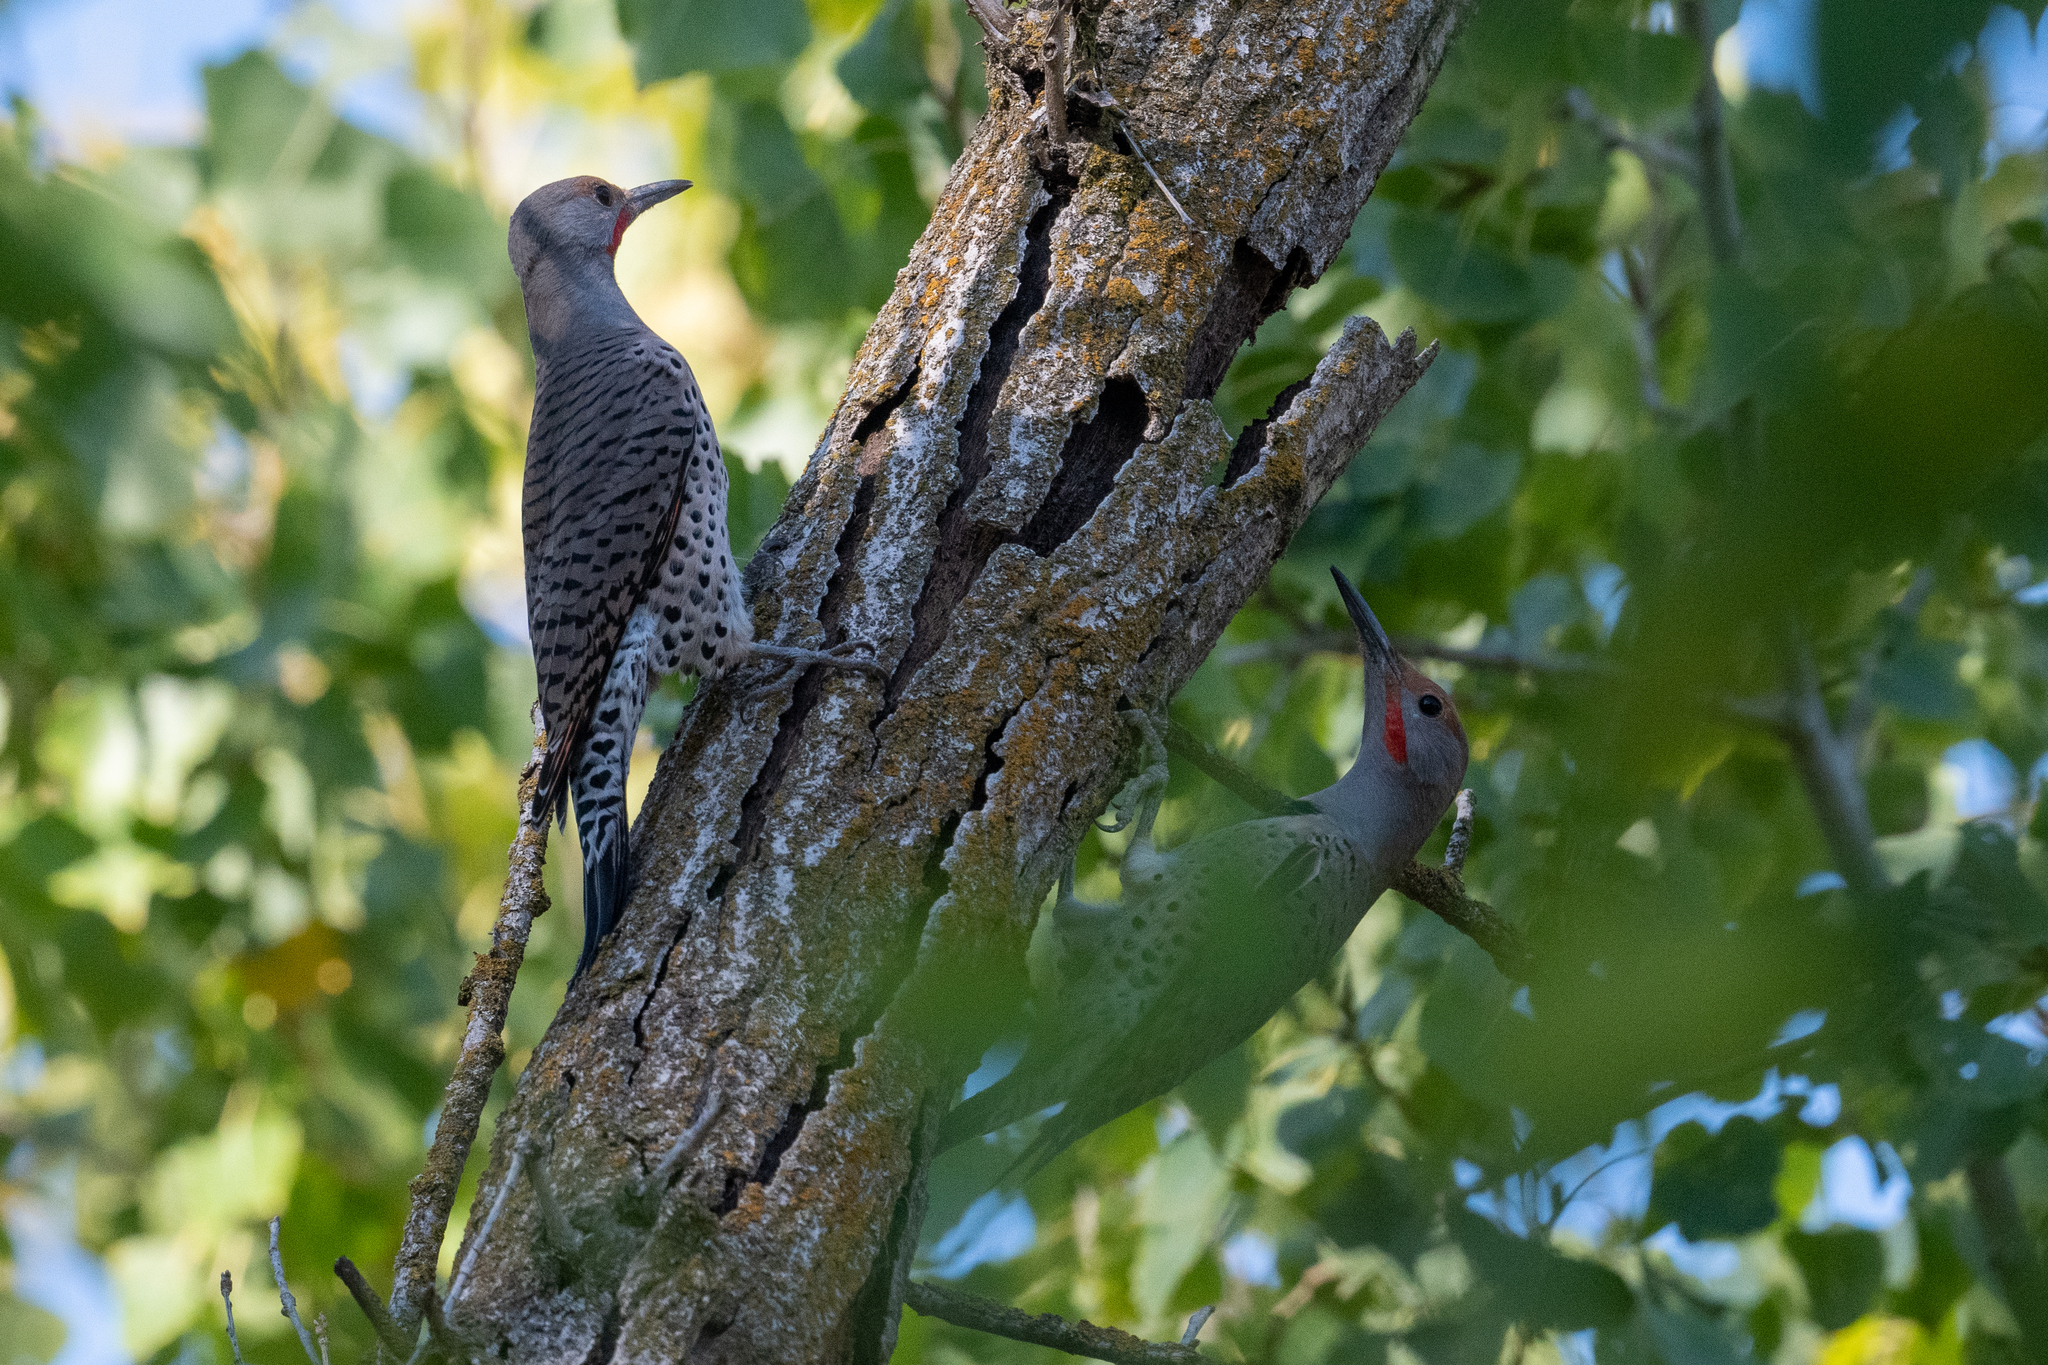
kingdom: Animalia
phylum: Chordata
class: Aves
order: Piciformes
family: Picidae
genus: Colaptes
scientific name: Colaptes auratus
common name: Northern flicker
